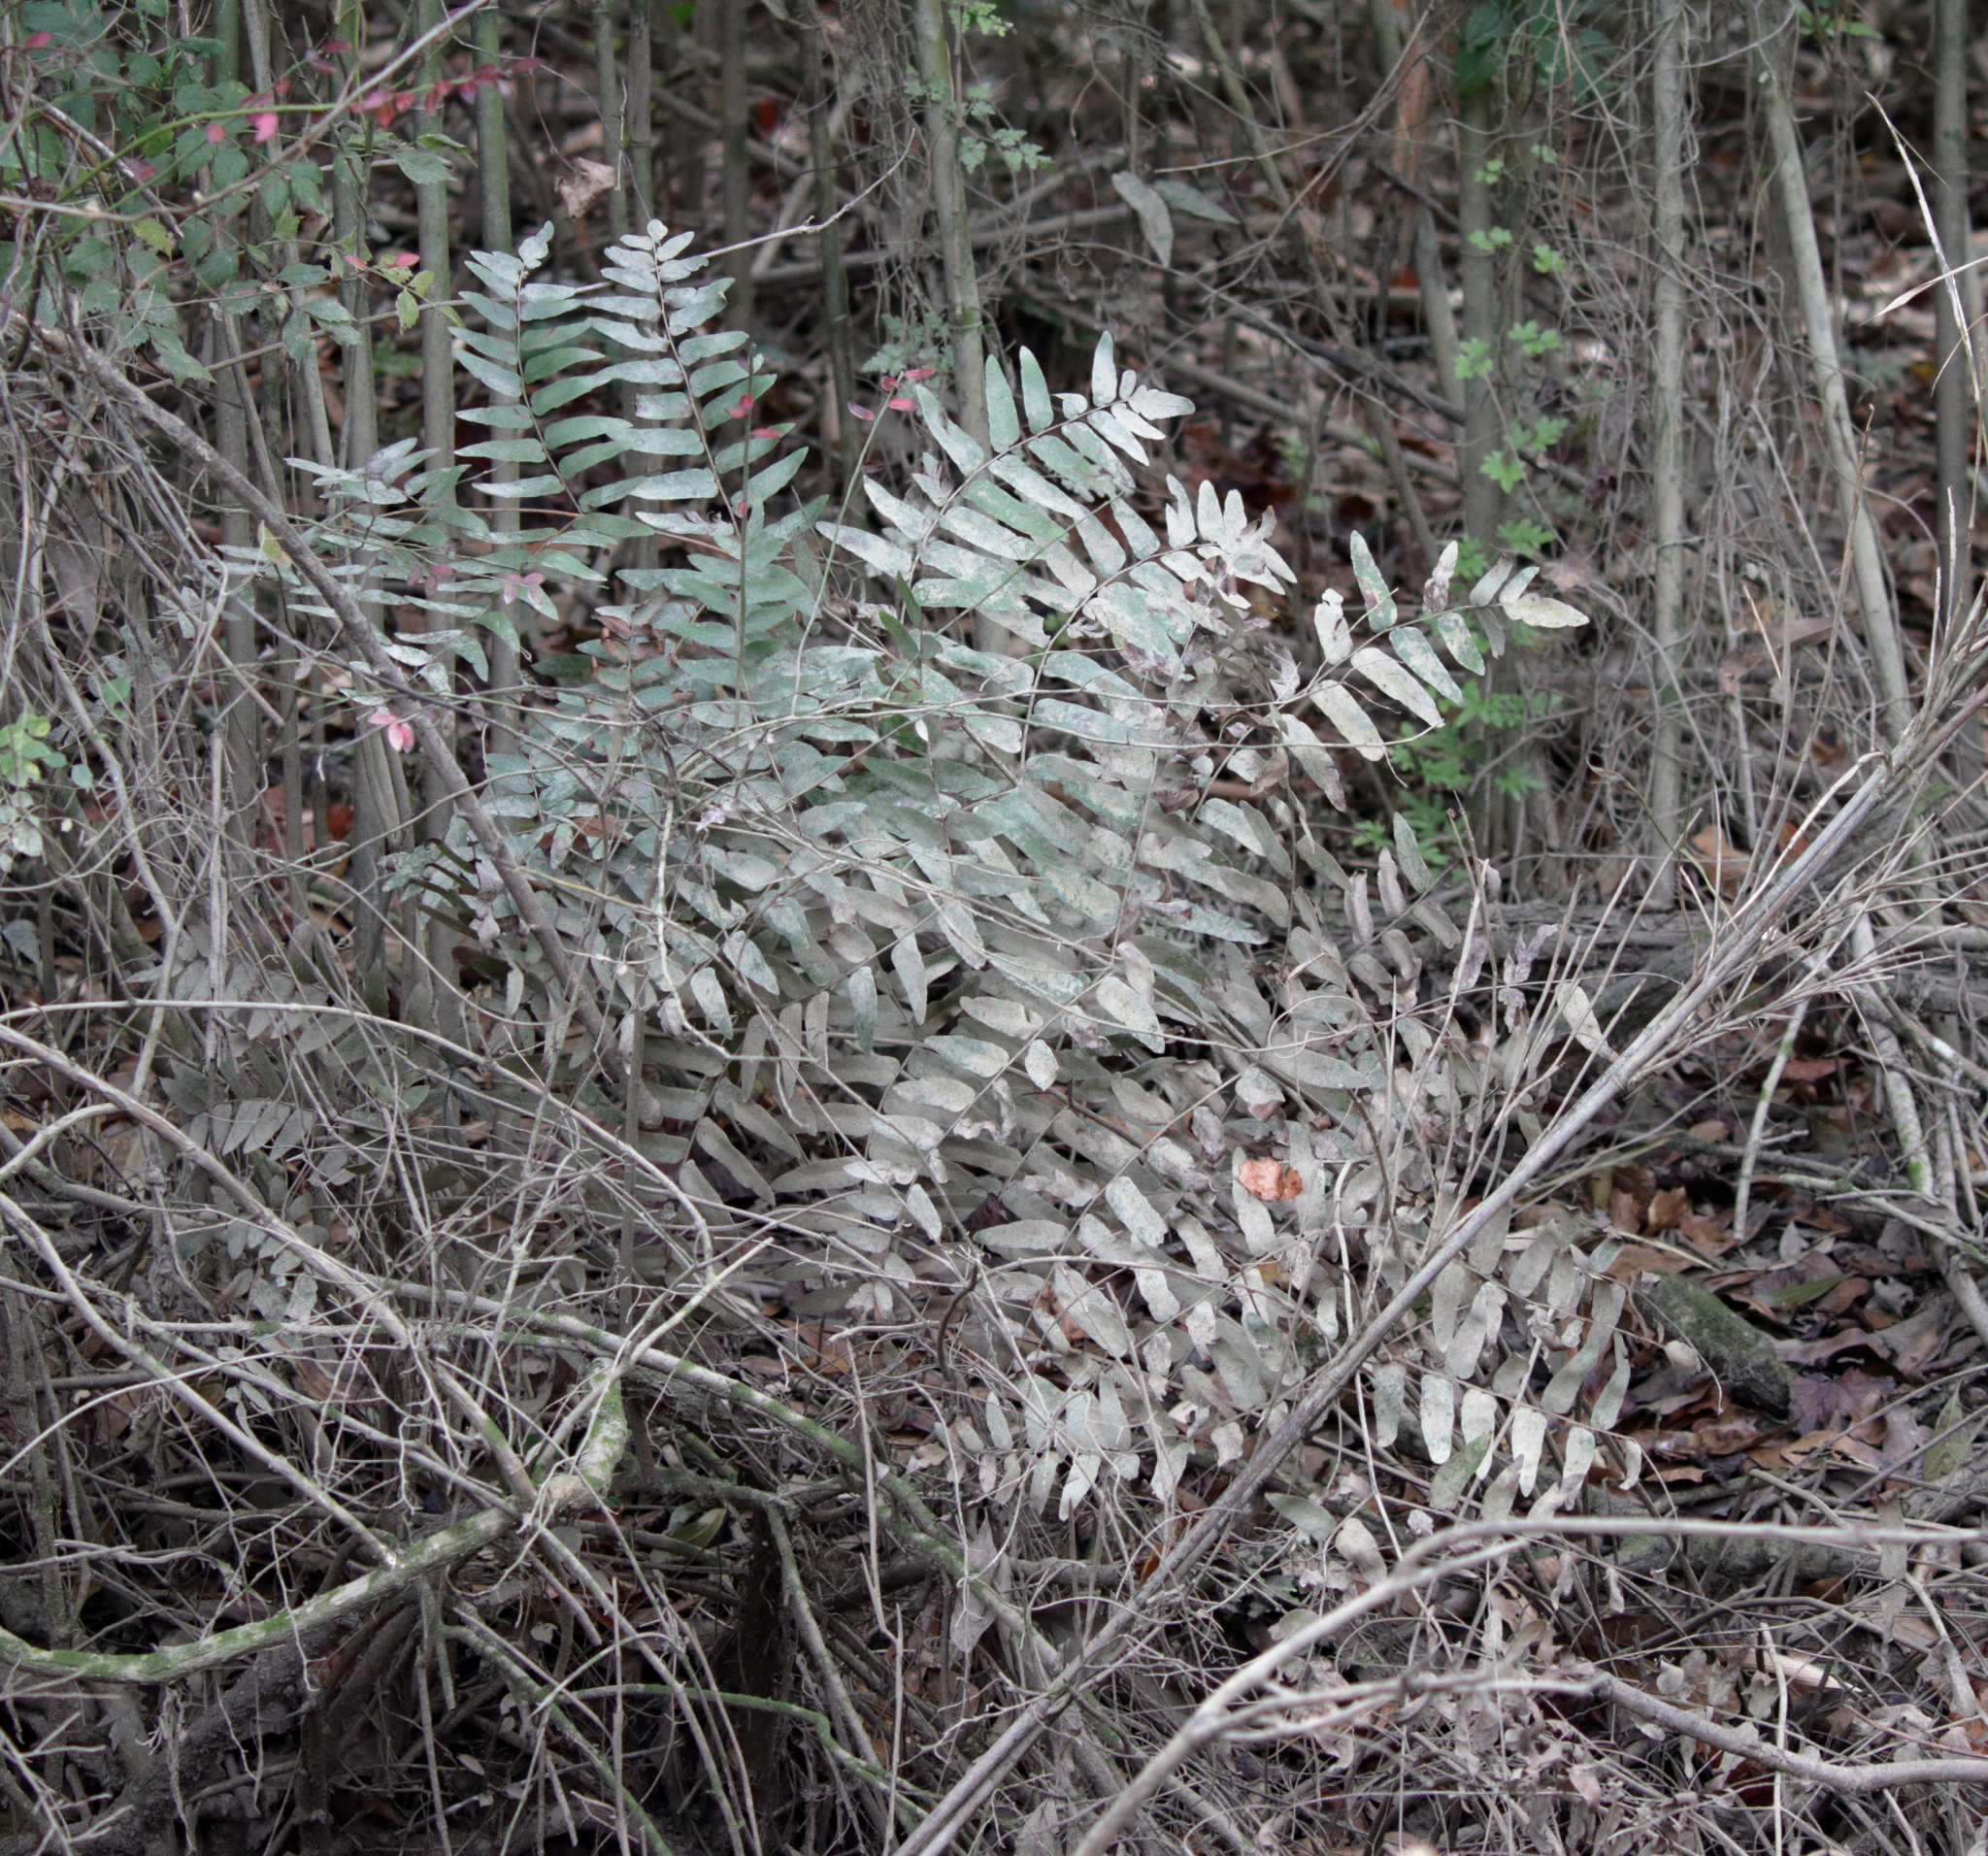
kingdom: Plantae
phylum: Tracheophyta
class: Polypodiopsida
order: Osmundales
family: Osmundaceae
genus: Osmunda
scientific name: Osmunda spectabilis
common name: American royal fern
